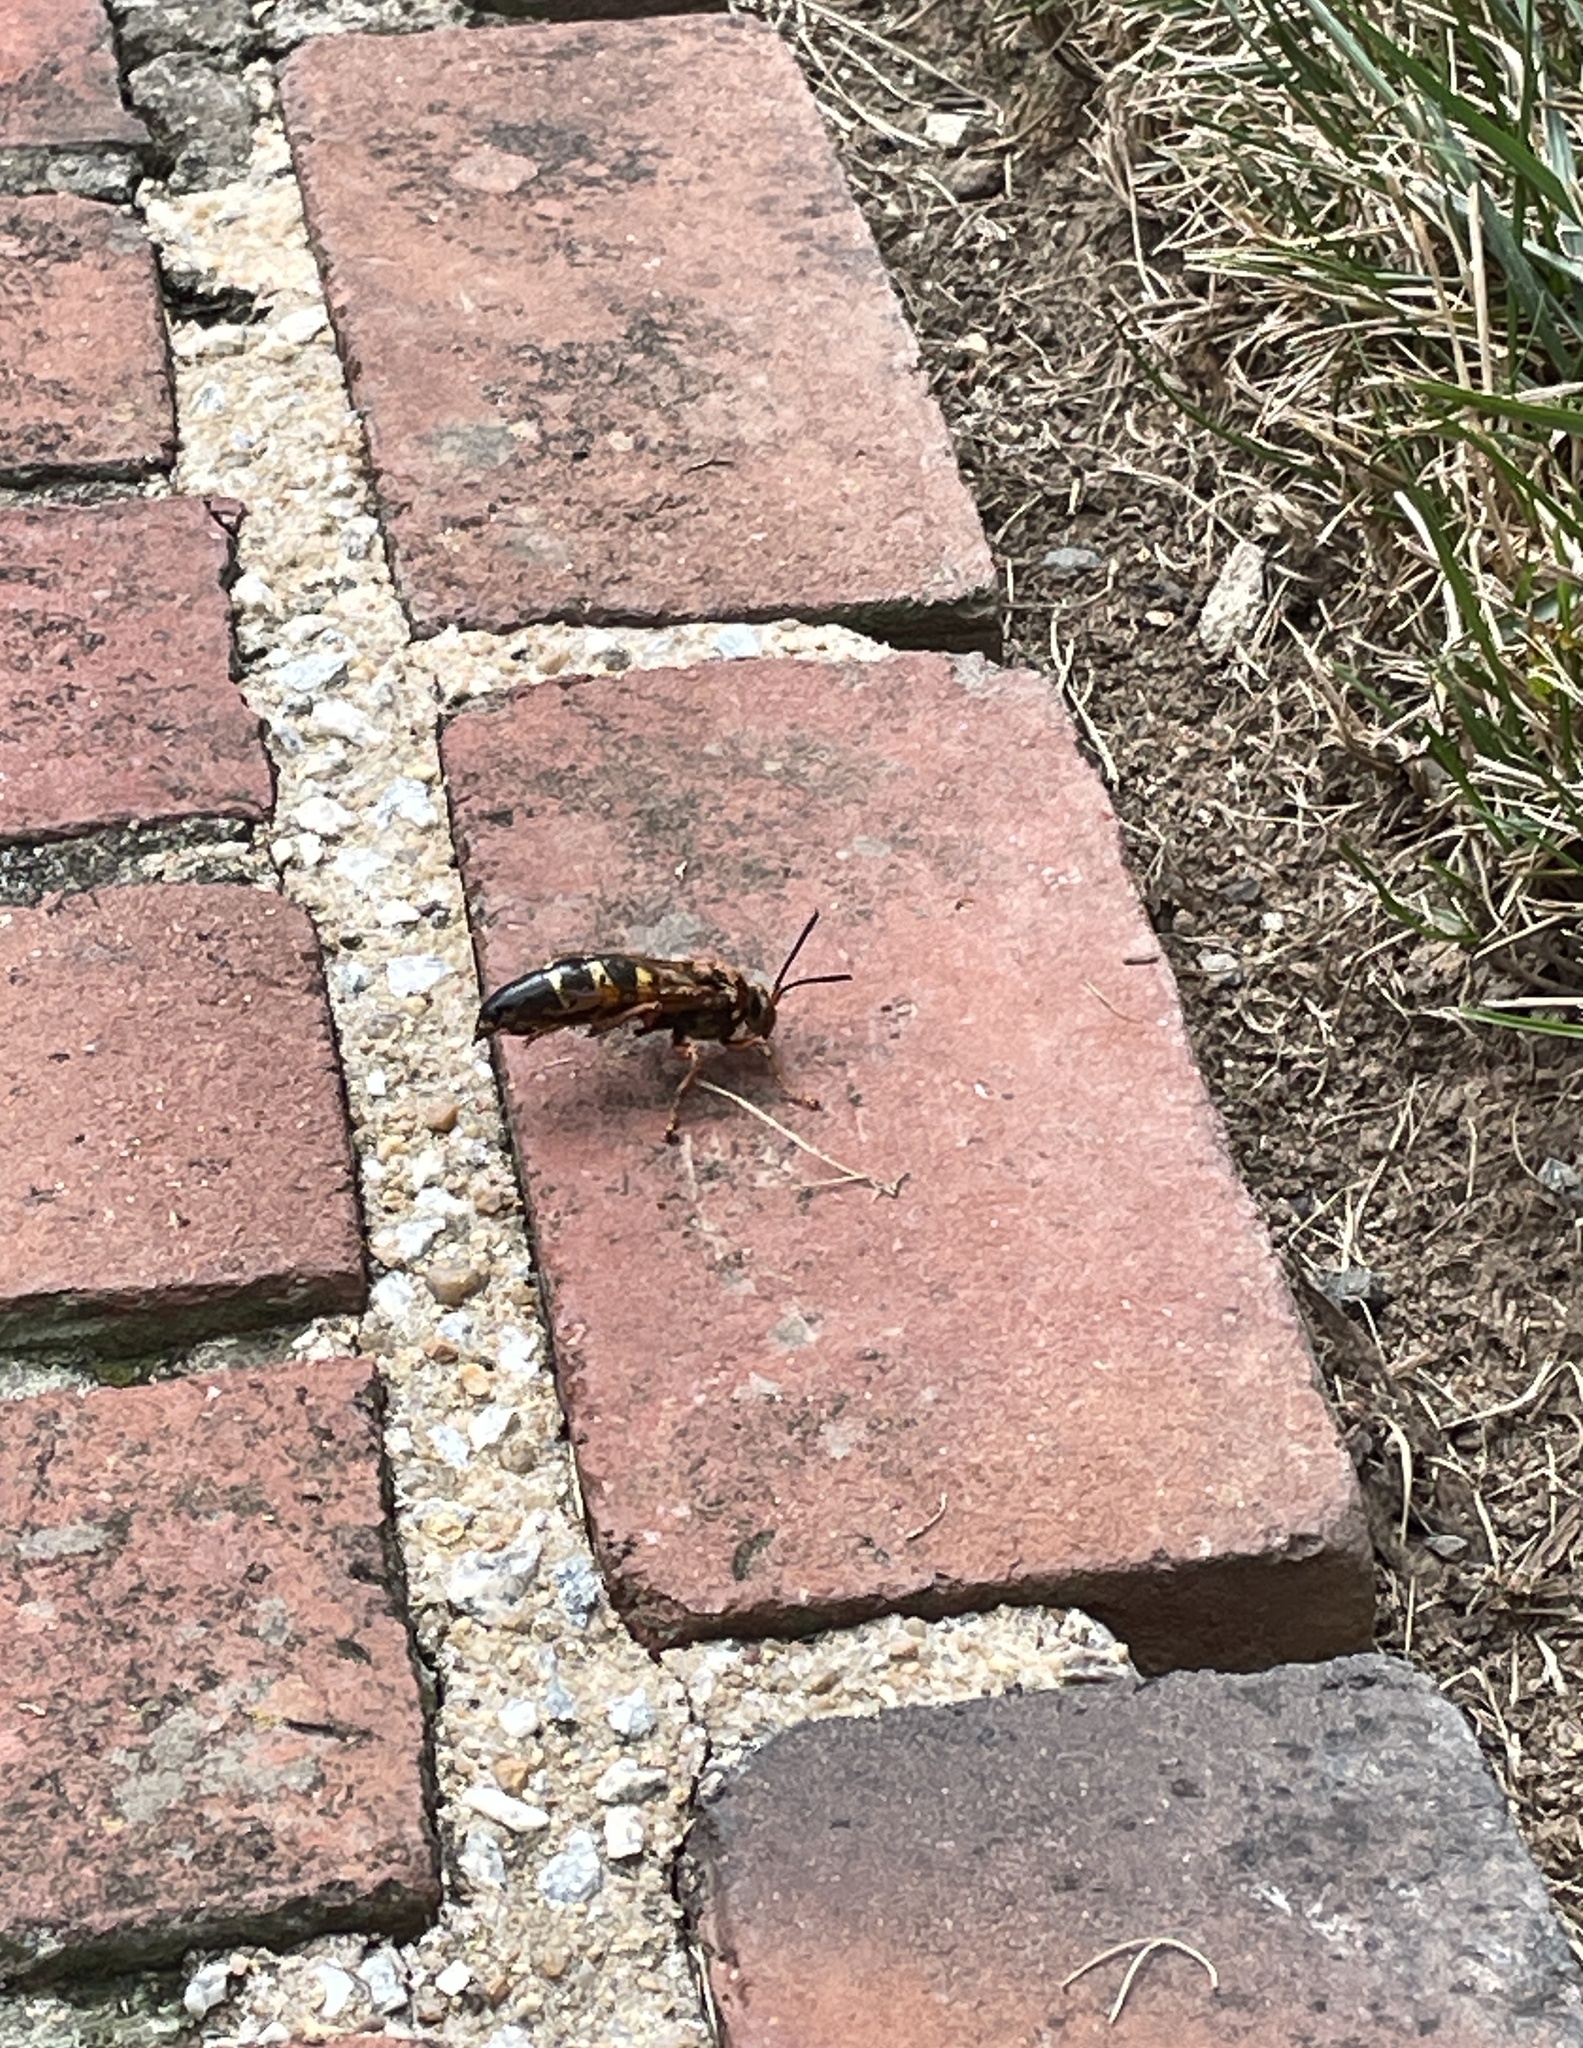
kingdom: Animalia
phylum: Arthropoda
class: Insecta
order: Hymenoptera
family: Crabronidae
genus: Sphecius
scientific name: Sphecius speciosus
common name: Cicada killer
